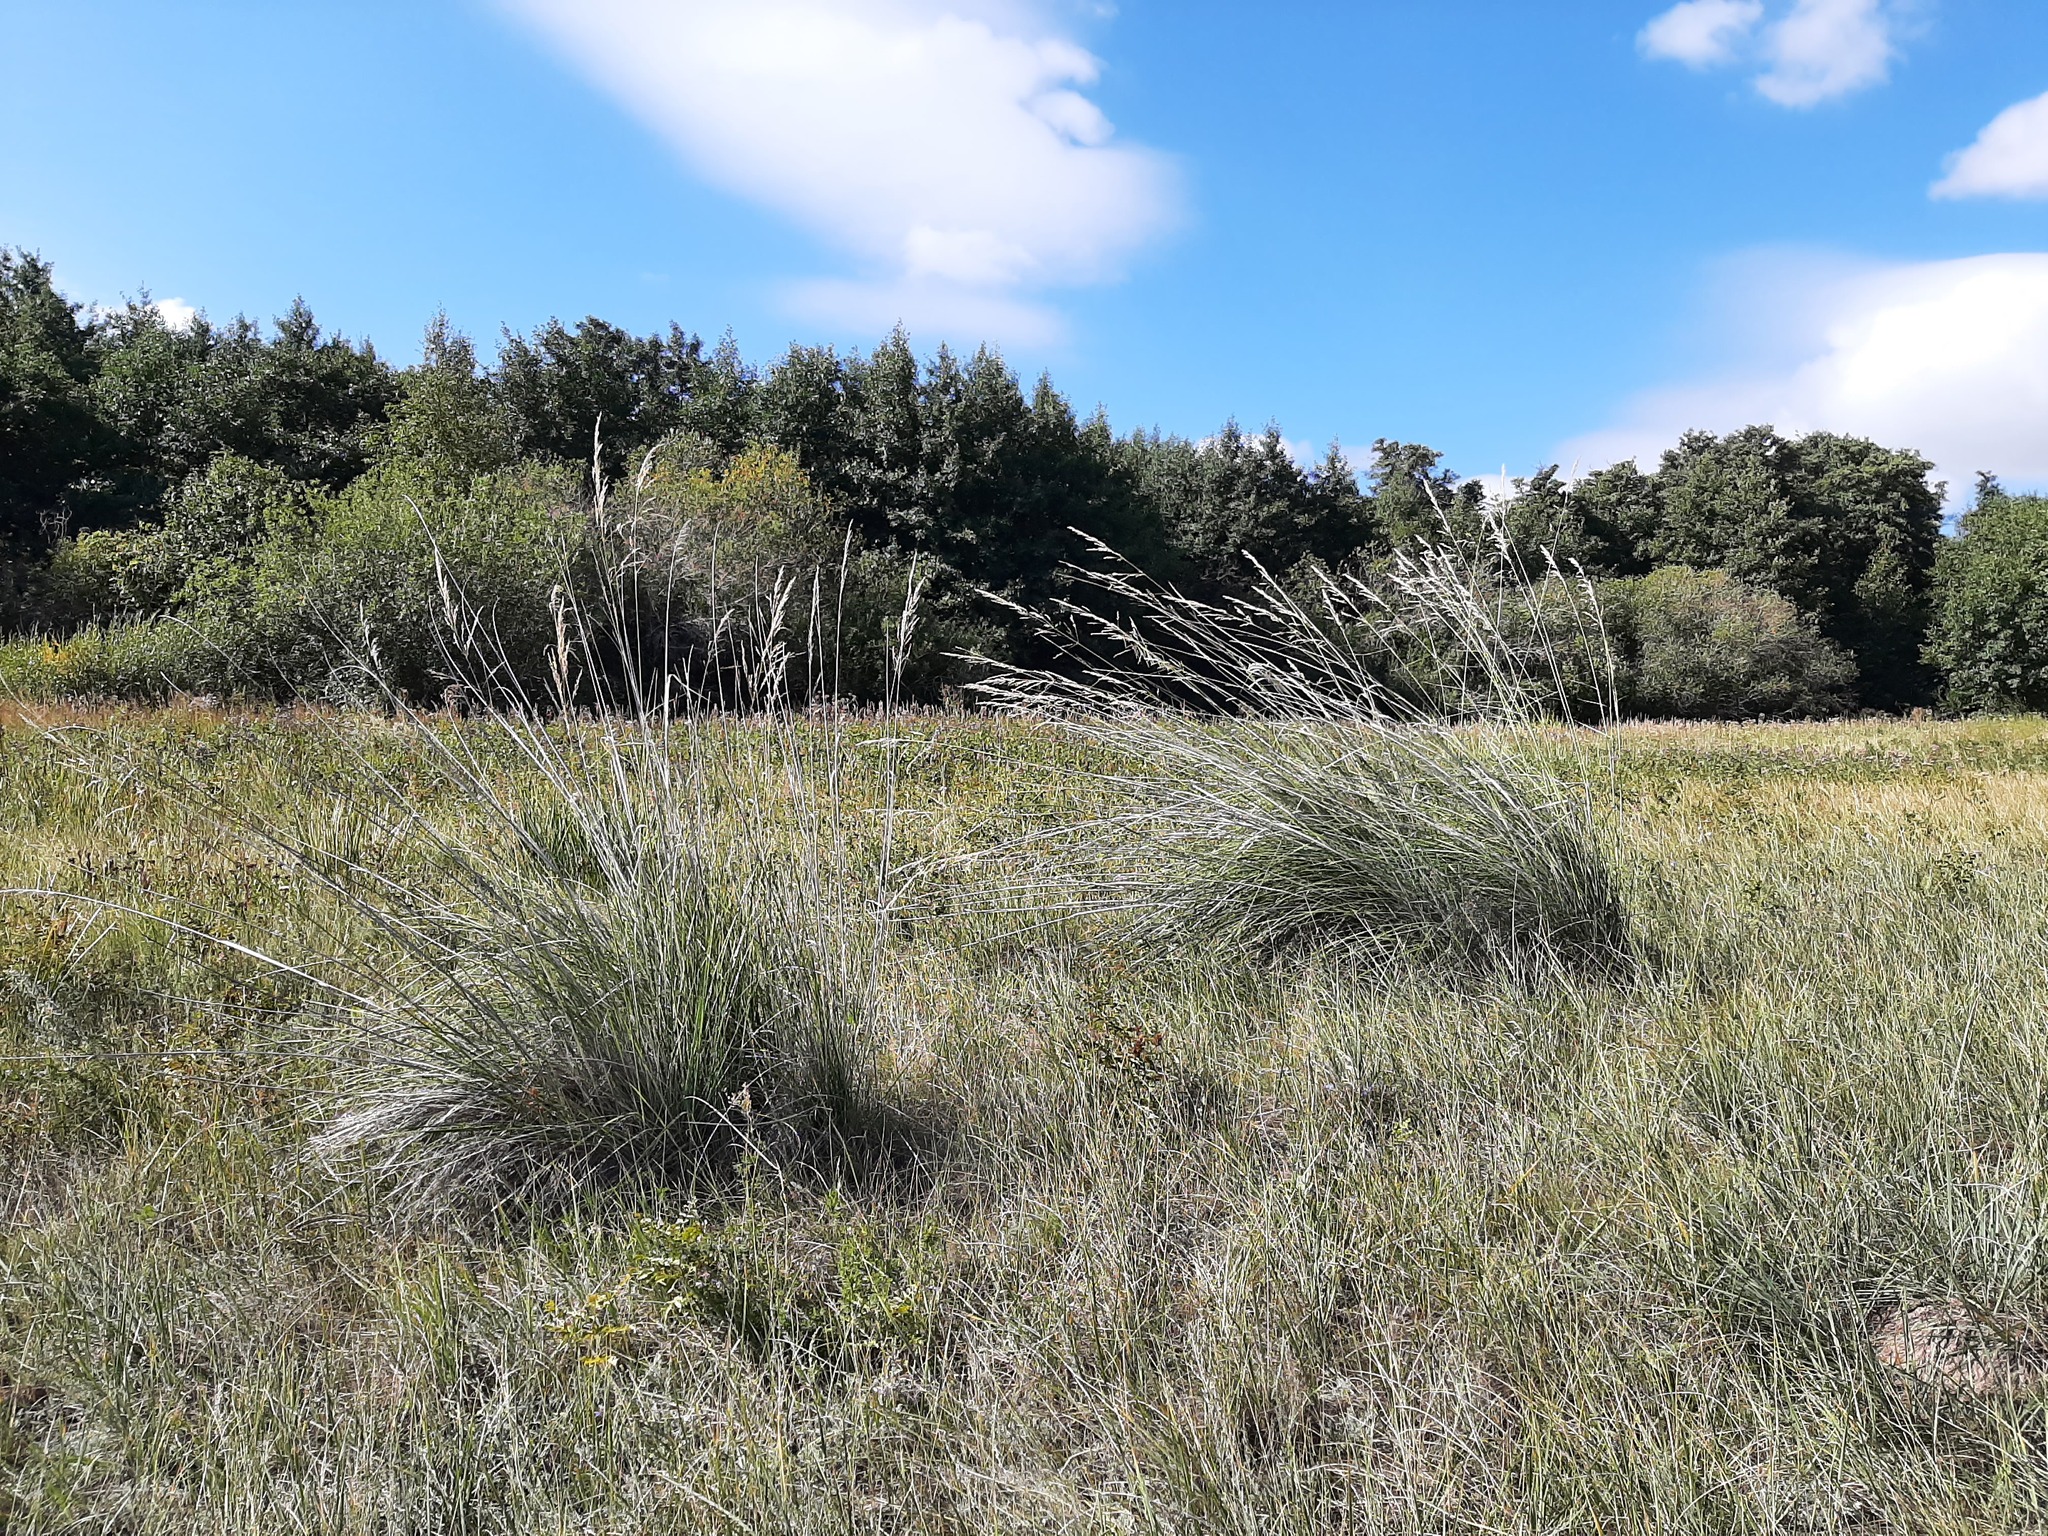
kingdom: Plantae
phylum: Tracheophyta
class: Liliopsida
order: Poales
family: Poaceae
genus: Neotrinia
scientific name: Neotrinia splendens
